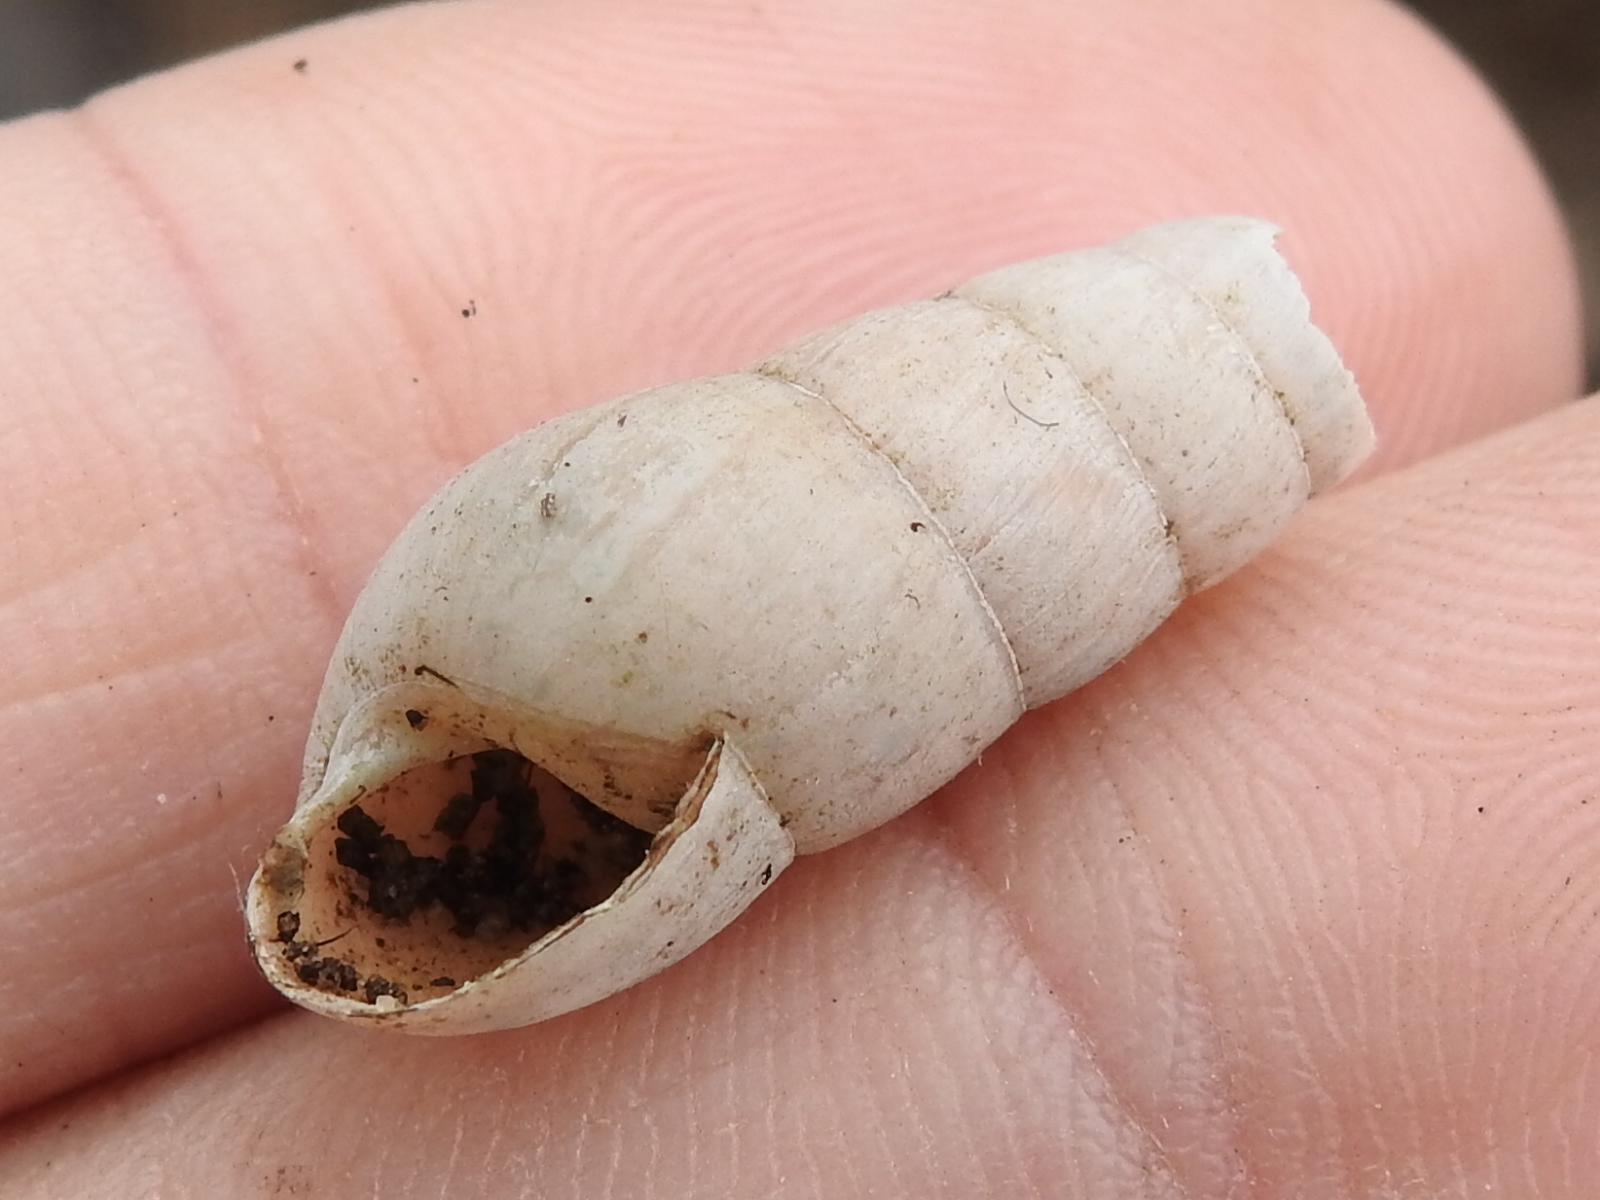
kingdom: Animalia
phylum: Mollusca
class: Gastropoda
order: Stylommatophora
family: Achatinidae
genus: Rumina
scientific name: Rumina decollata
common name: Decollate snail
